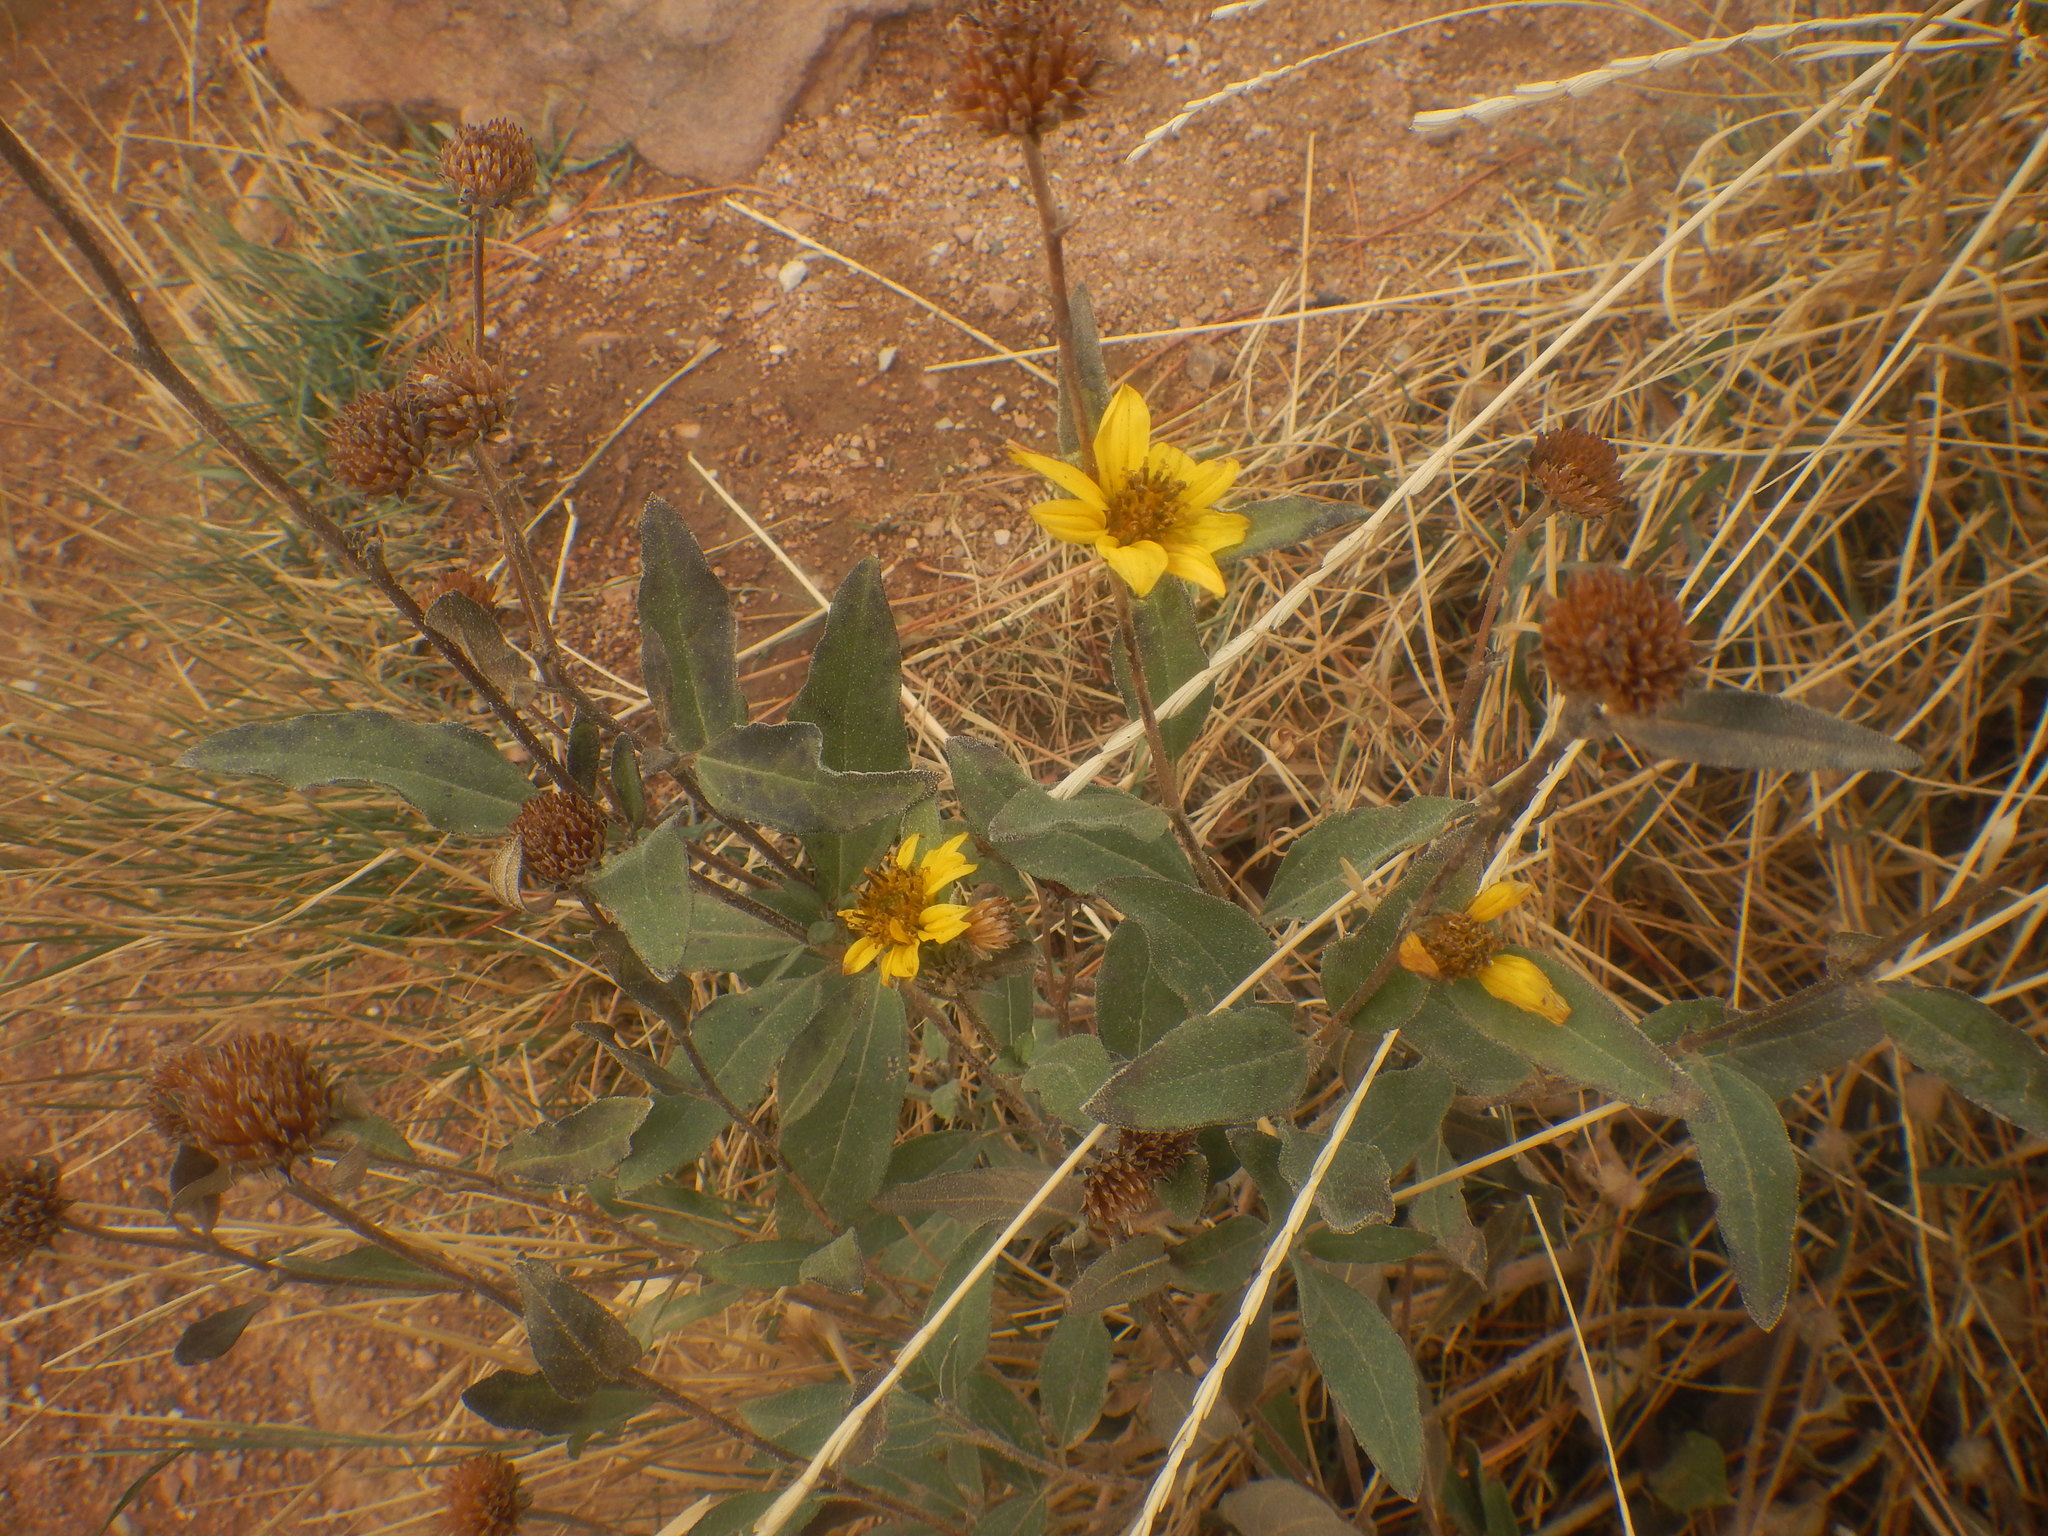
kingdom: Plantae
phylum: Tracheophyta
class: Magnoliopsida
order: Asterales
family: Asteraceae
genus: Helianthus
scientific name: Helianthus pumilus
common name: Dwarf sunflower
